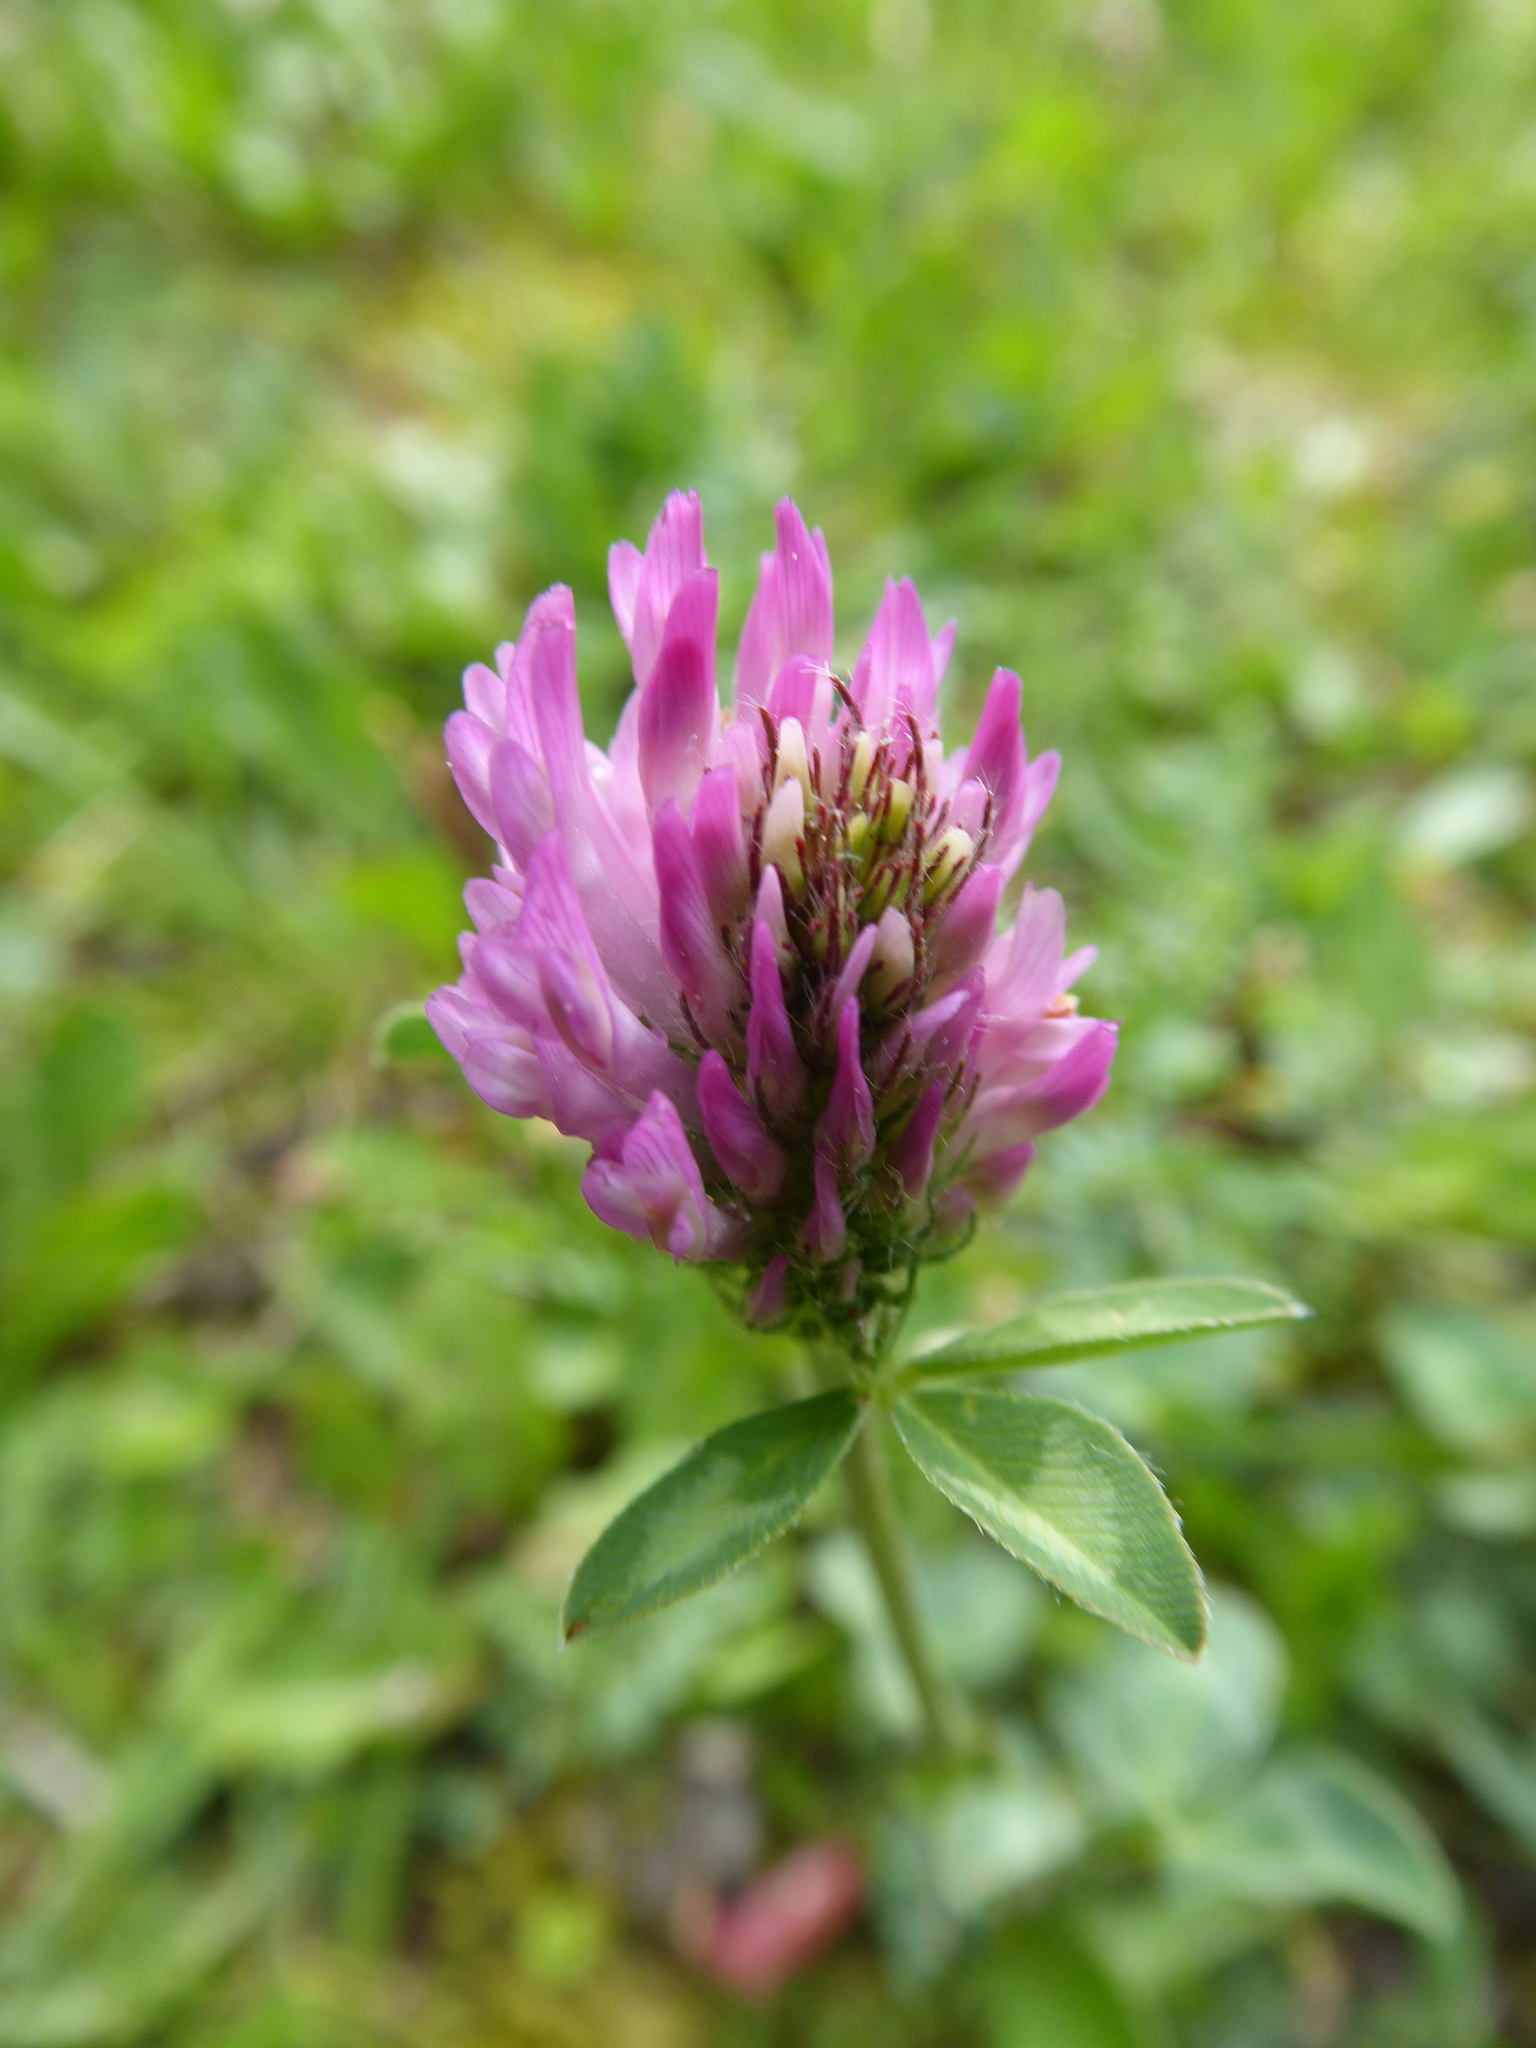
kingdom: Plantae
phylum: Tracheophyta
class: Magnoliopsida
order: Fabales
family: Fabaceae
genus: Trifolium
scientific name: Trifolium pratense
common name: Red clover
